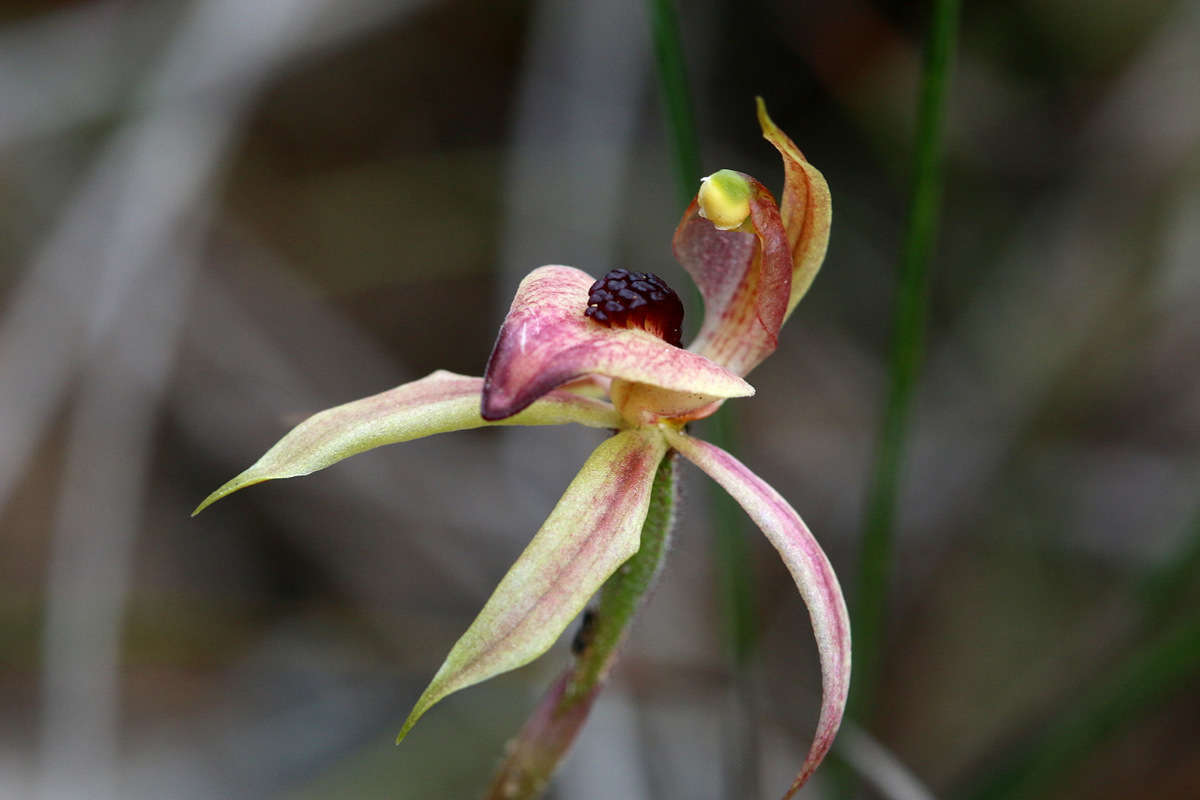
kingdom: Plantae
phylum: Tracheophyta
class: Liliopsida
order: Asparagales
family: Orchidaceae
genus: Caladenia
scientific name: Caladenia cardiochila
